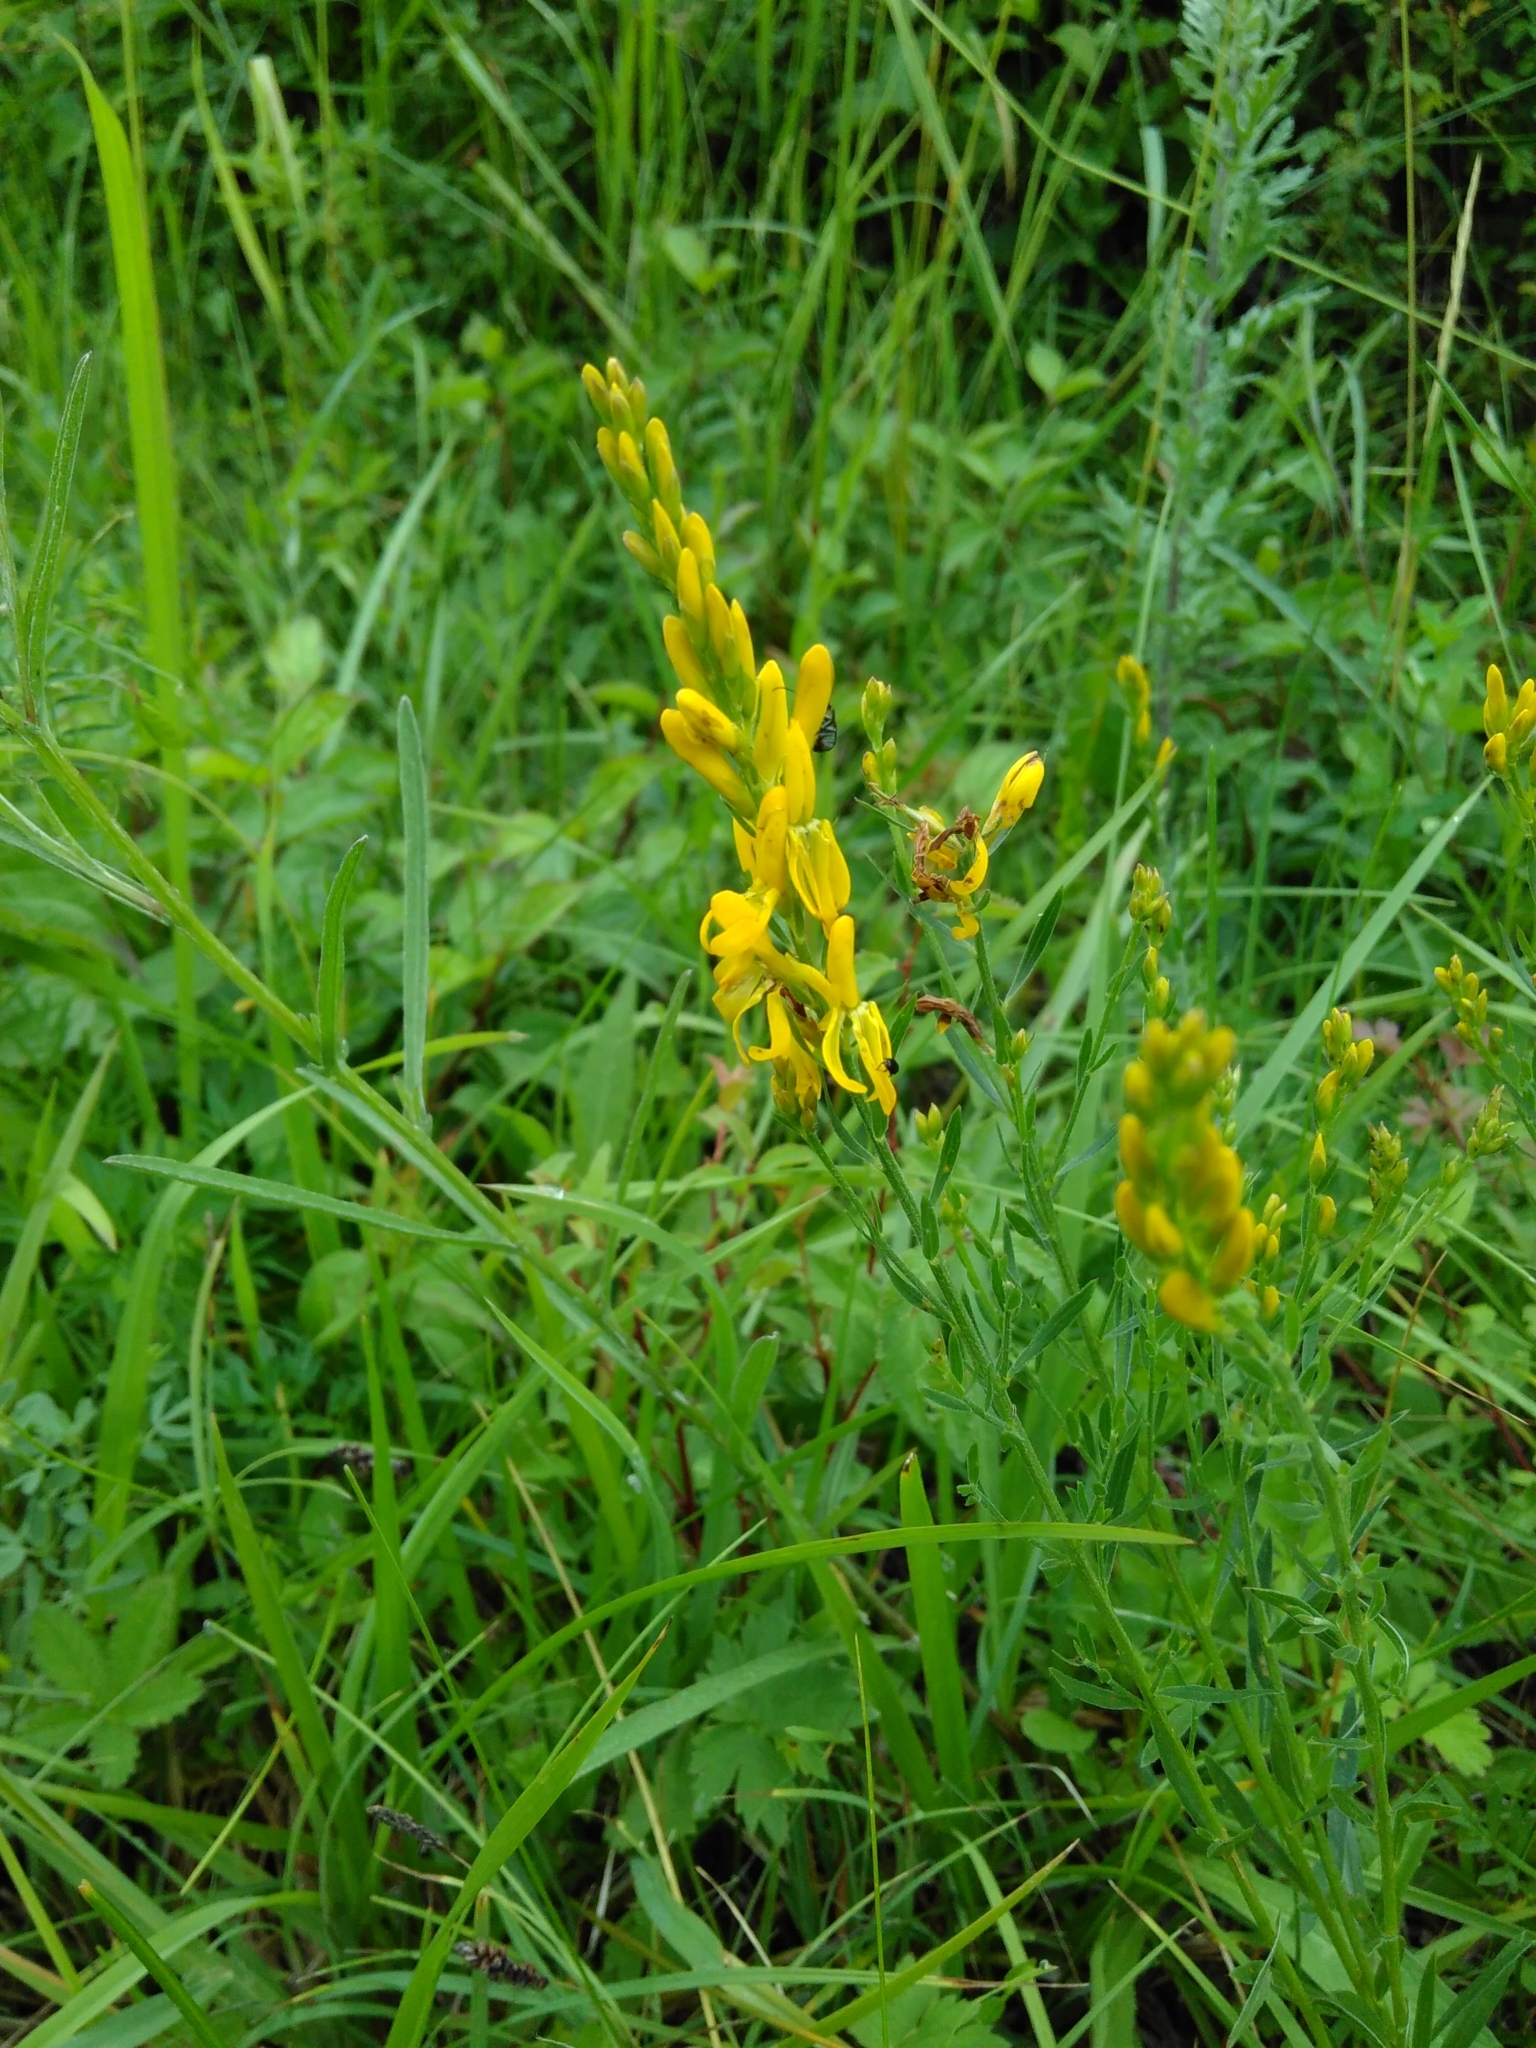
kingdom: Plantae
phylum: Tracheophyta
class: Magnoliopsida
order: Fabales
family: Fabaceae
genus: Genista
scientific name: Genista tinctoria
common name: Dyer's greenweed
